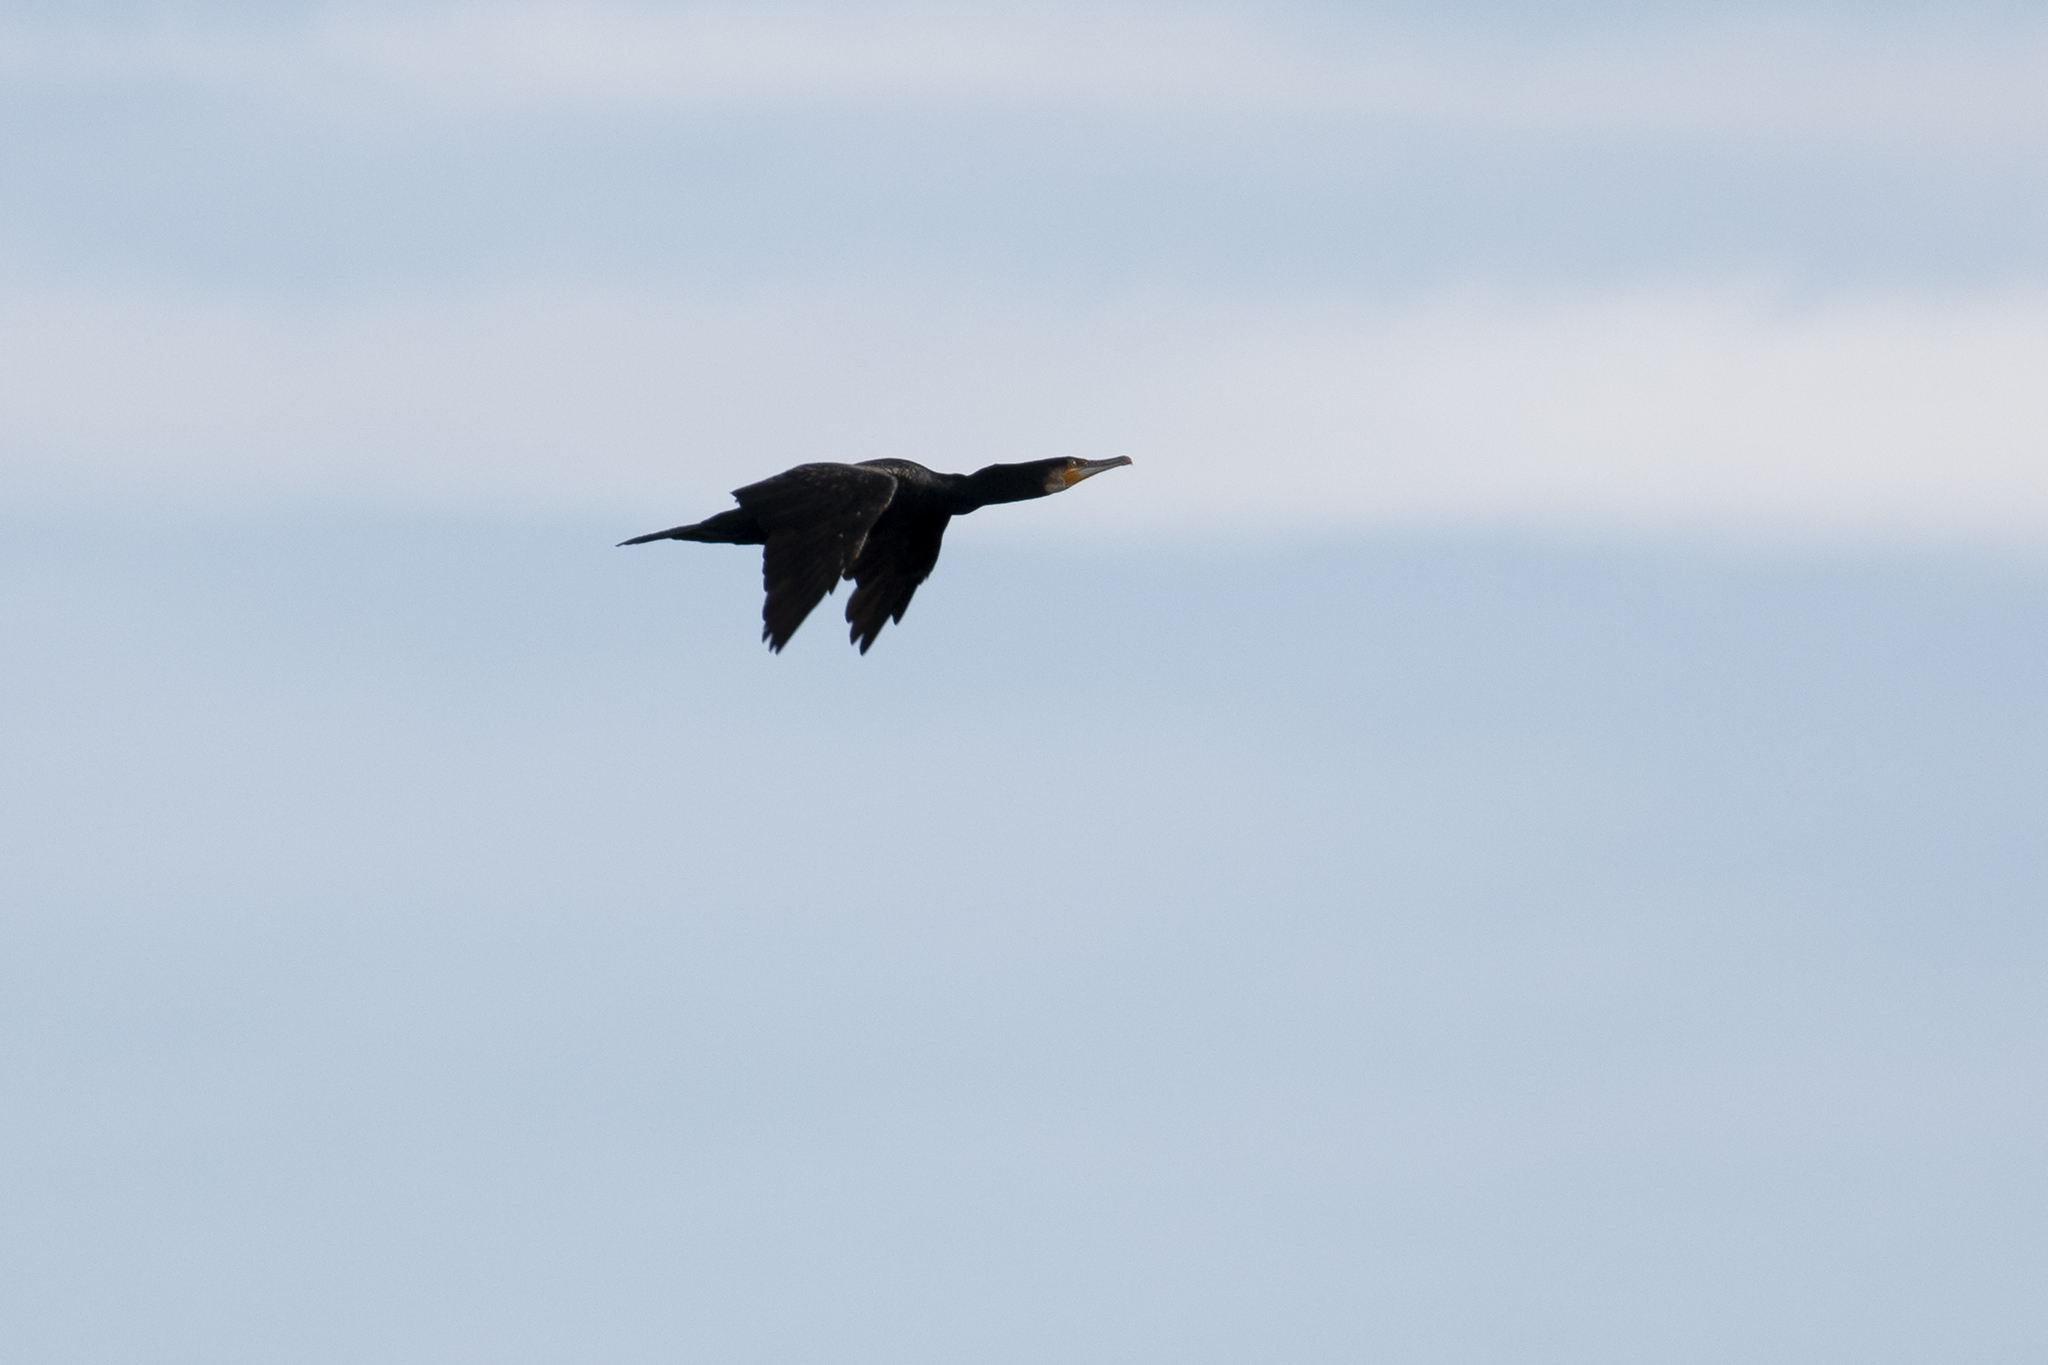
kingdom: Animalia
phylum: Chordata
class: Aves
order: Suliformes
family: Phalacrocoracidae
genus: Phalacrocorax
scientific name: Phalacrocorax carbo
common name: Great cormorant
